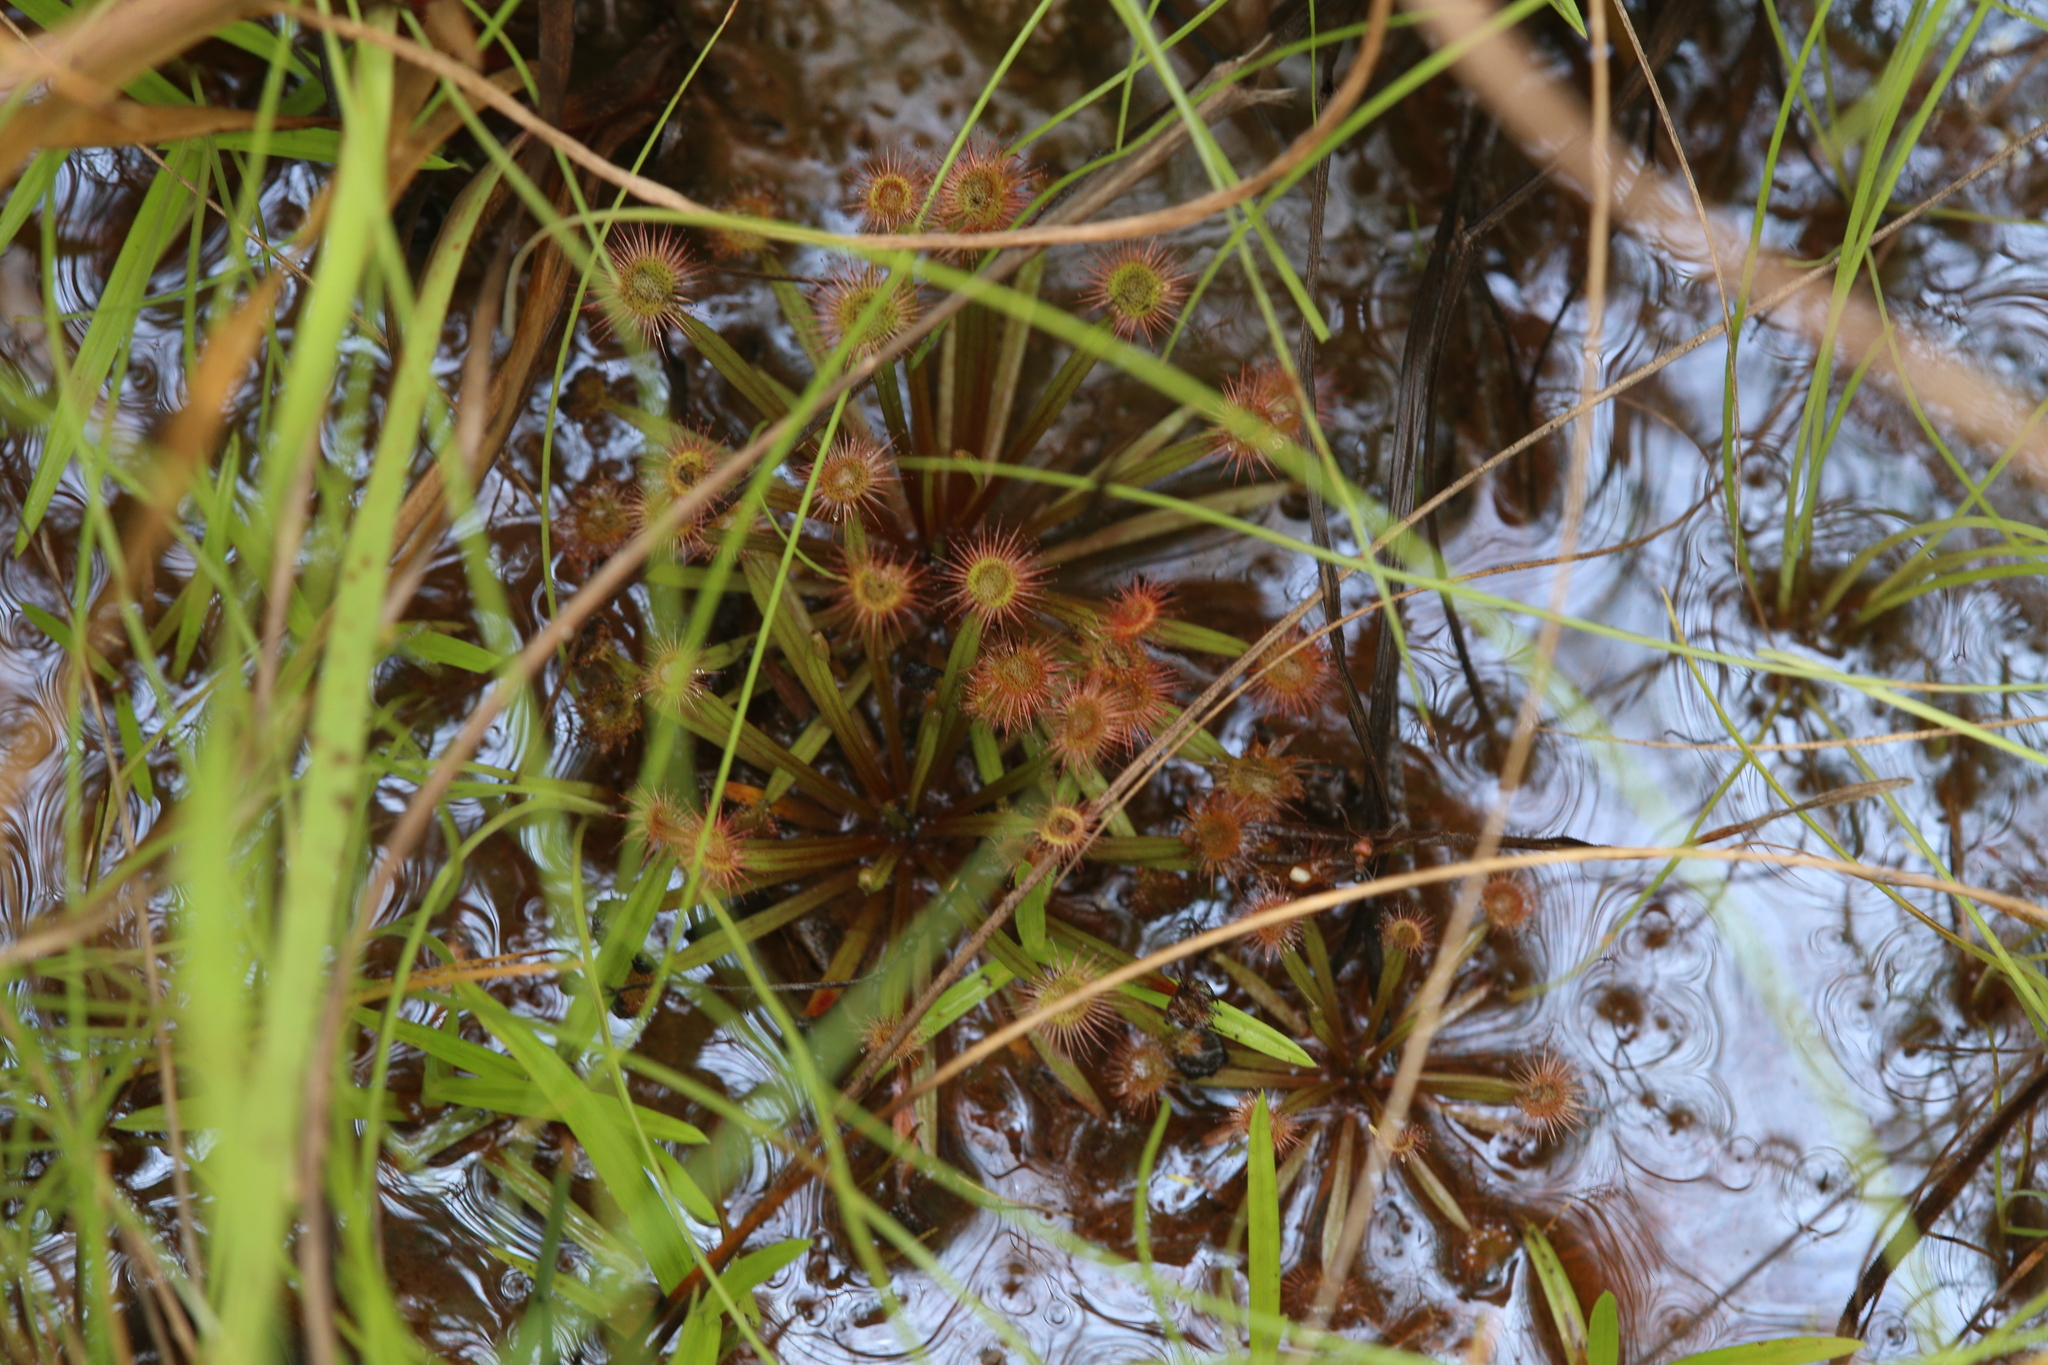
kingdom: Plantae
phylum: Tracheophyta
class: Magnoliopsida
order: Caryophyllales
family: Droseraceae
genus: Drosera
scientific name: Drosera dilatatopetiolaris
